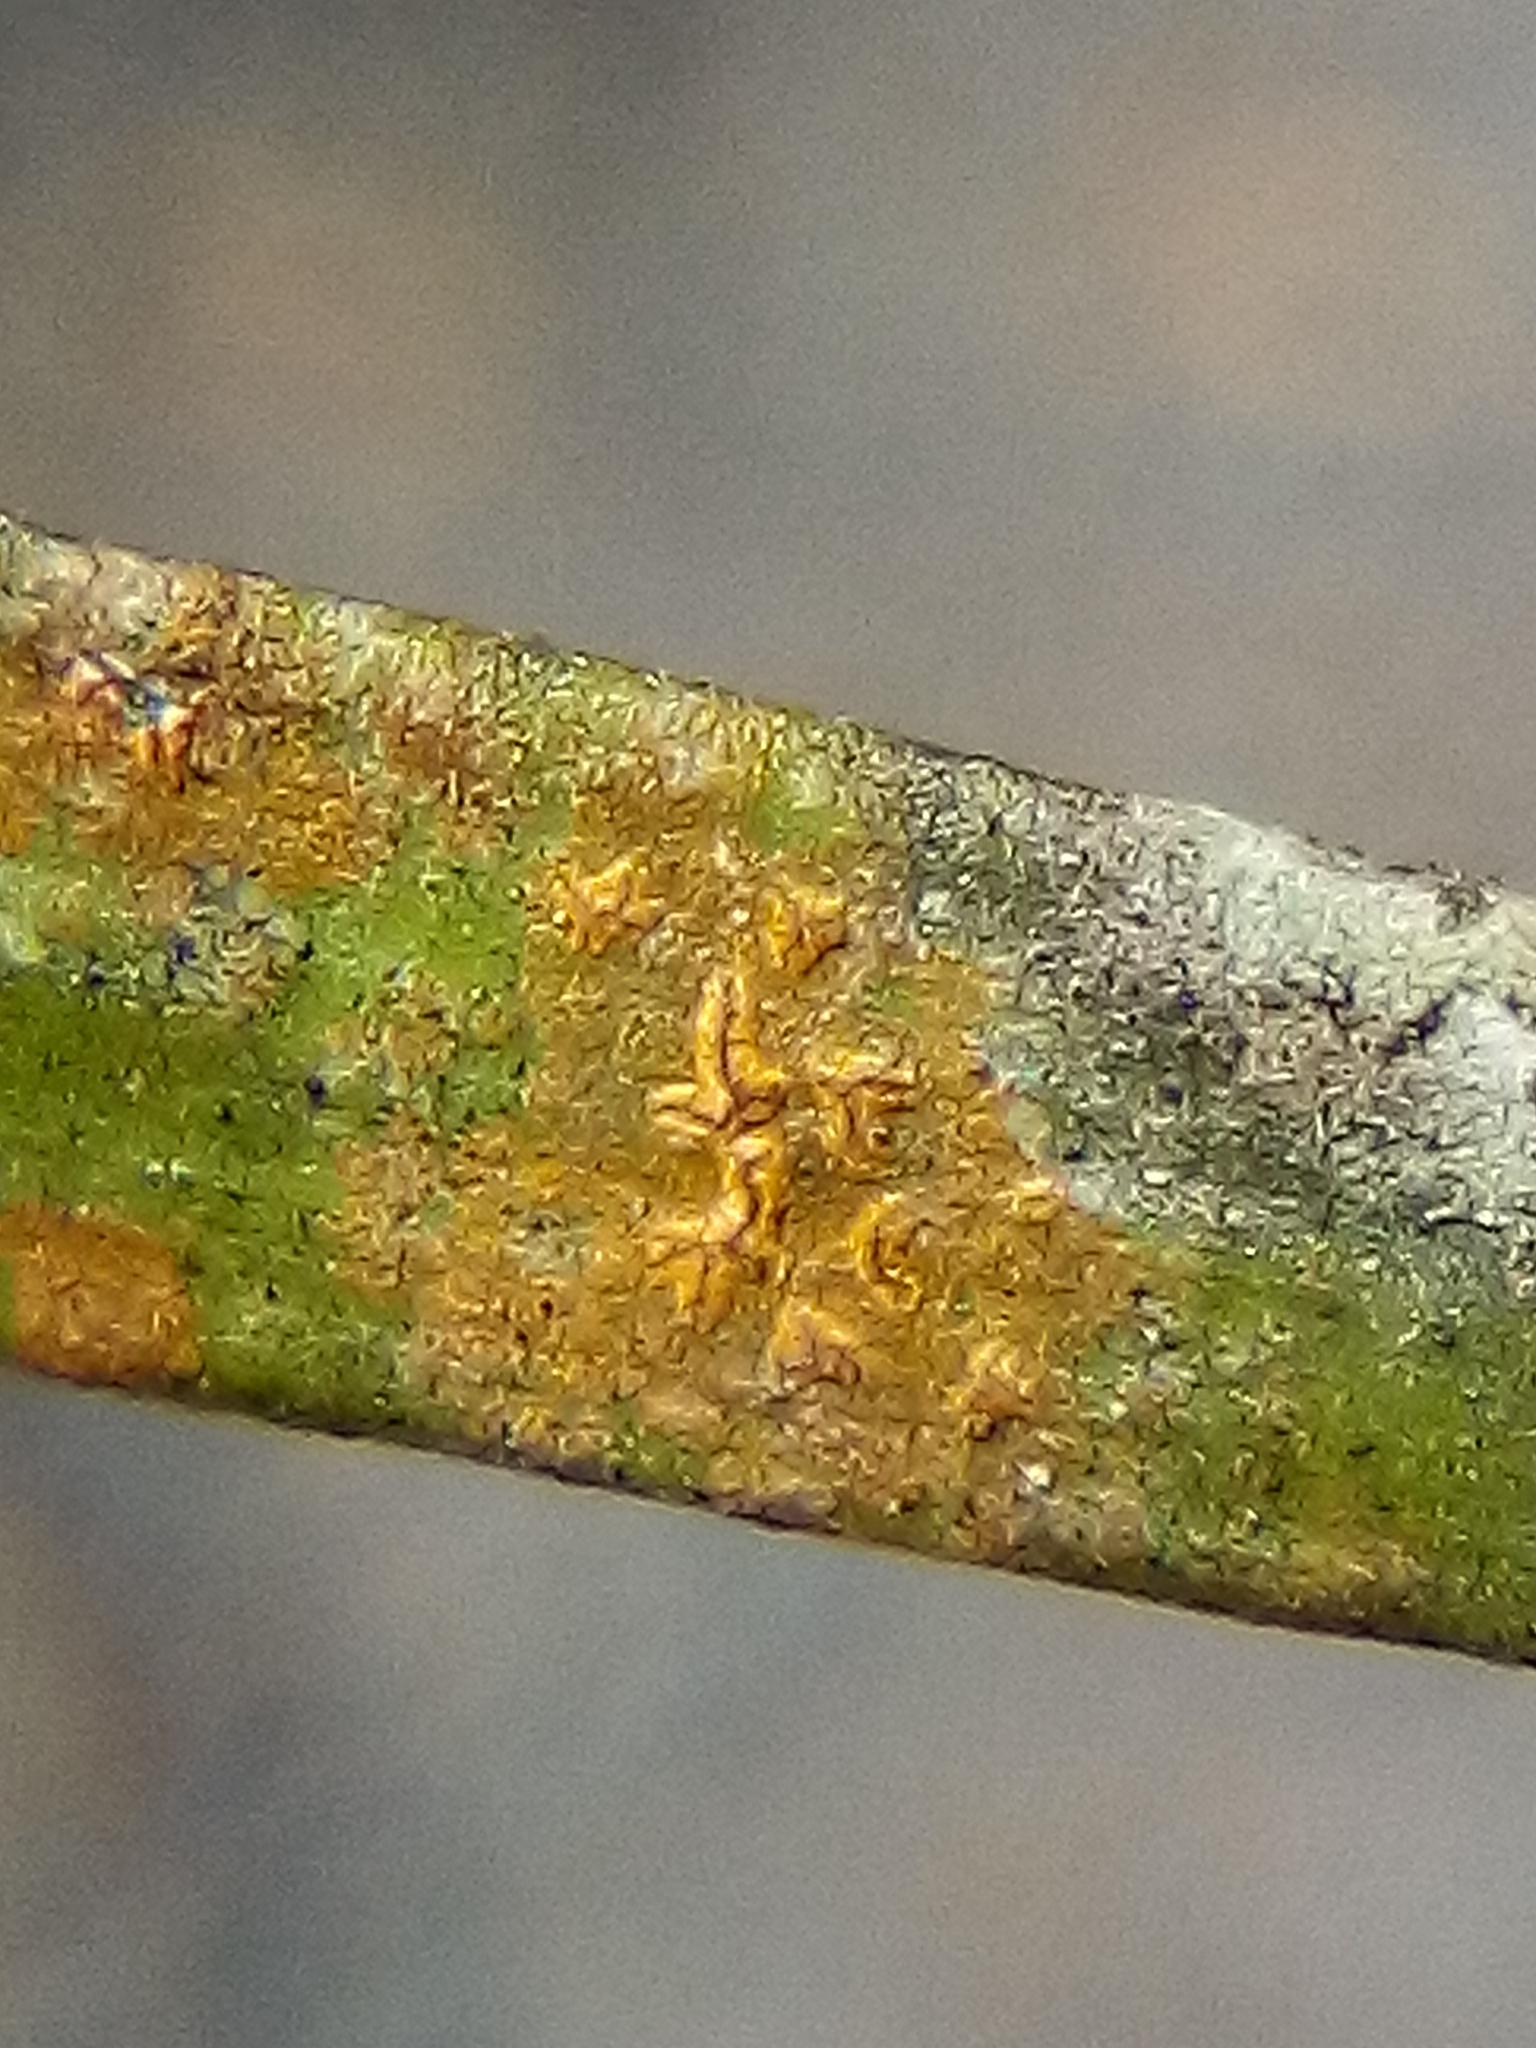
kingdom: Fungi
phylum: Ascomycota
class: Arthoniomycetes
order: Arthoniales
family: Roccellaceae
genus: Enterographa
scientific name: Enterographa bella
